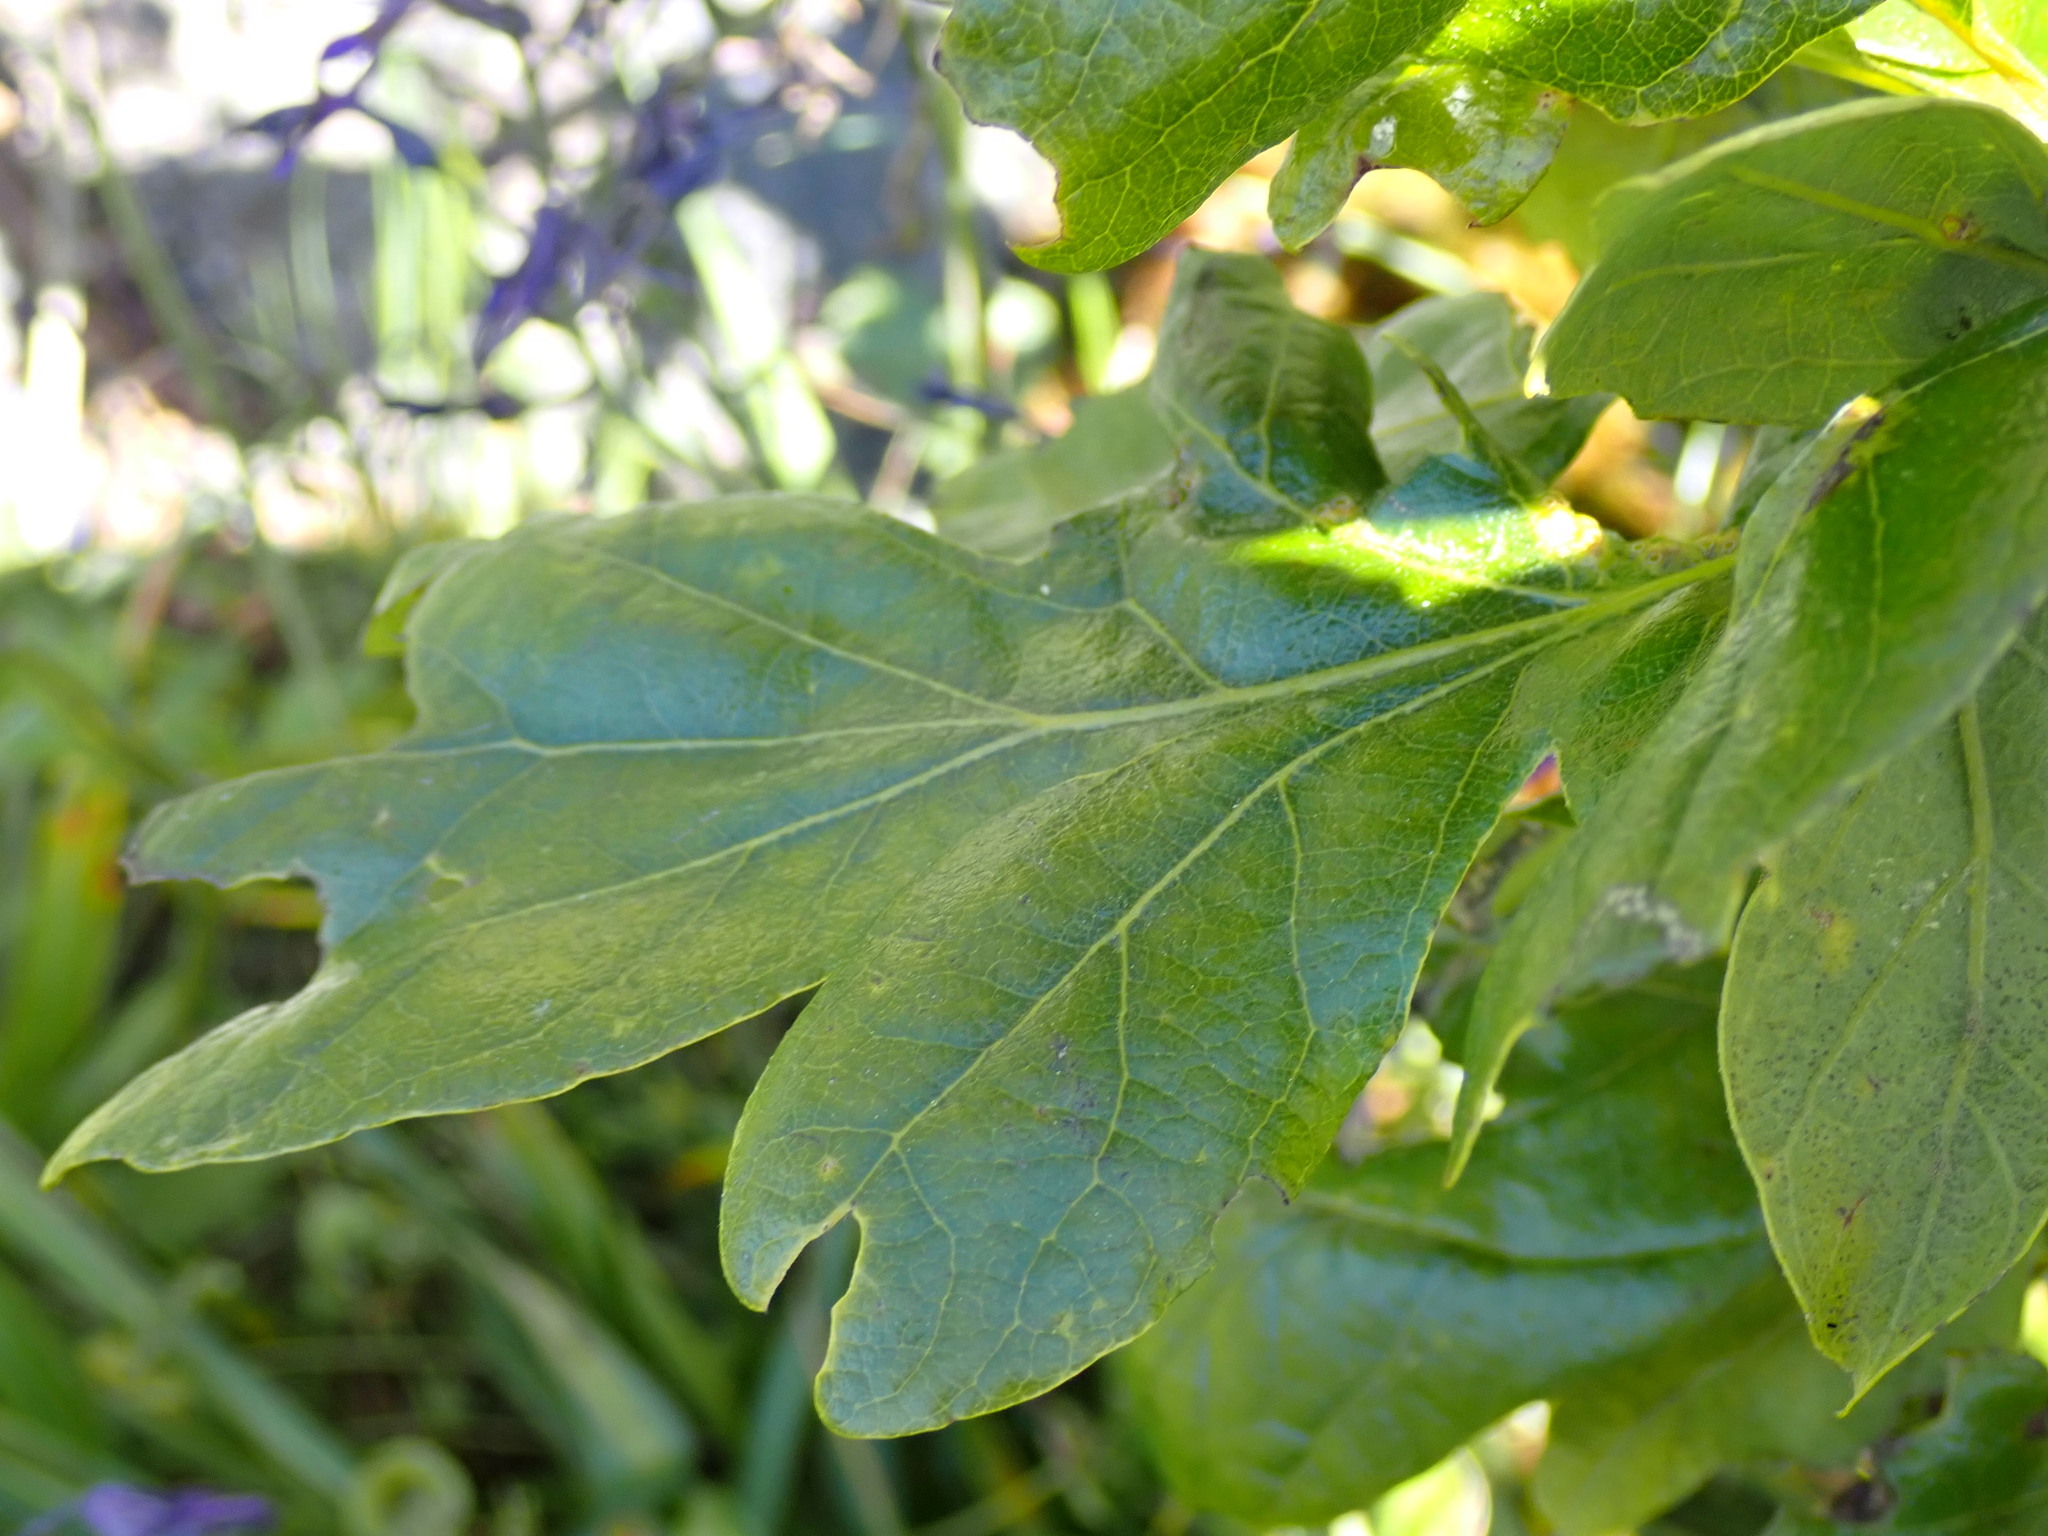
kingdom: Plantae
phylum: Tracheophyta
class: Magnoliopsida
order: Fagales
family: Fagaceae
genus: Quercus
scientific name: Quercus garryana
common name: Garry oak
